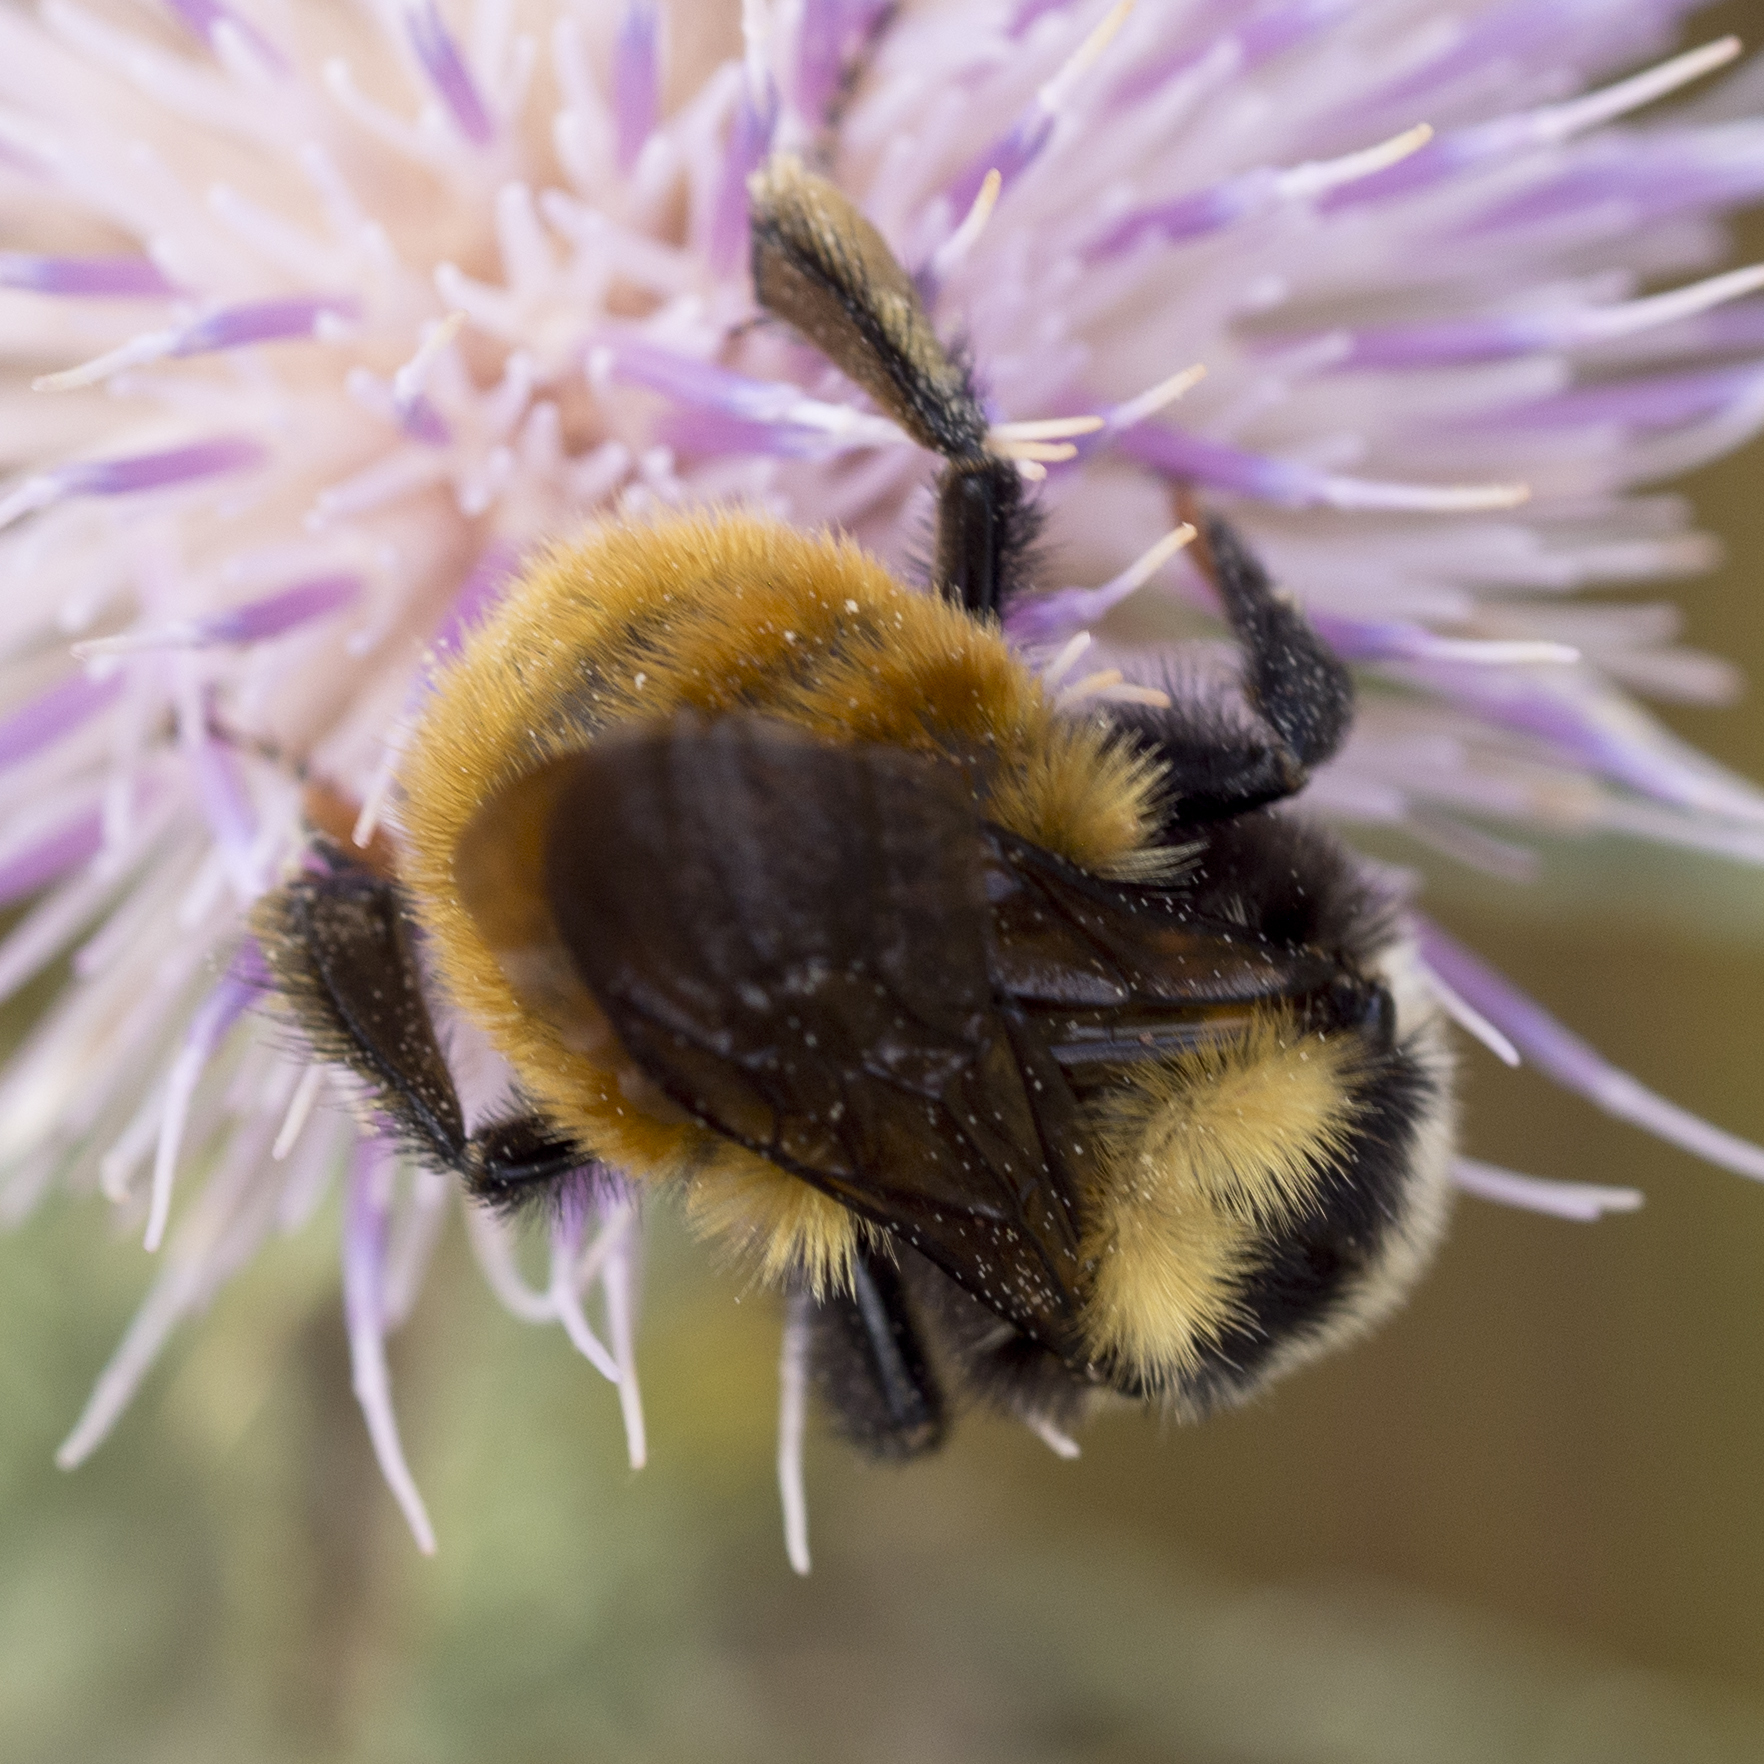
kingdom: Animalia
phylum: Arthropoda
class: Insecta
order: Hymenoptera
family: Apidae
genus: Bombus
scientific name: Bombus appositus
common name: White-shouldered bumble bee
